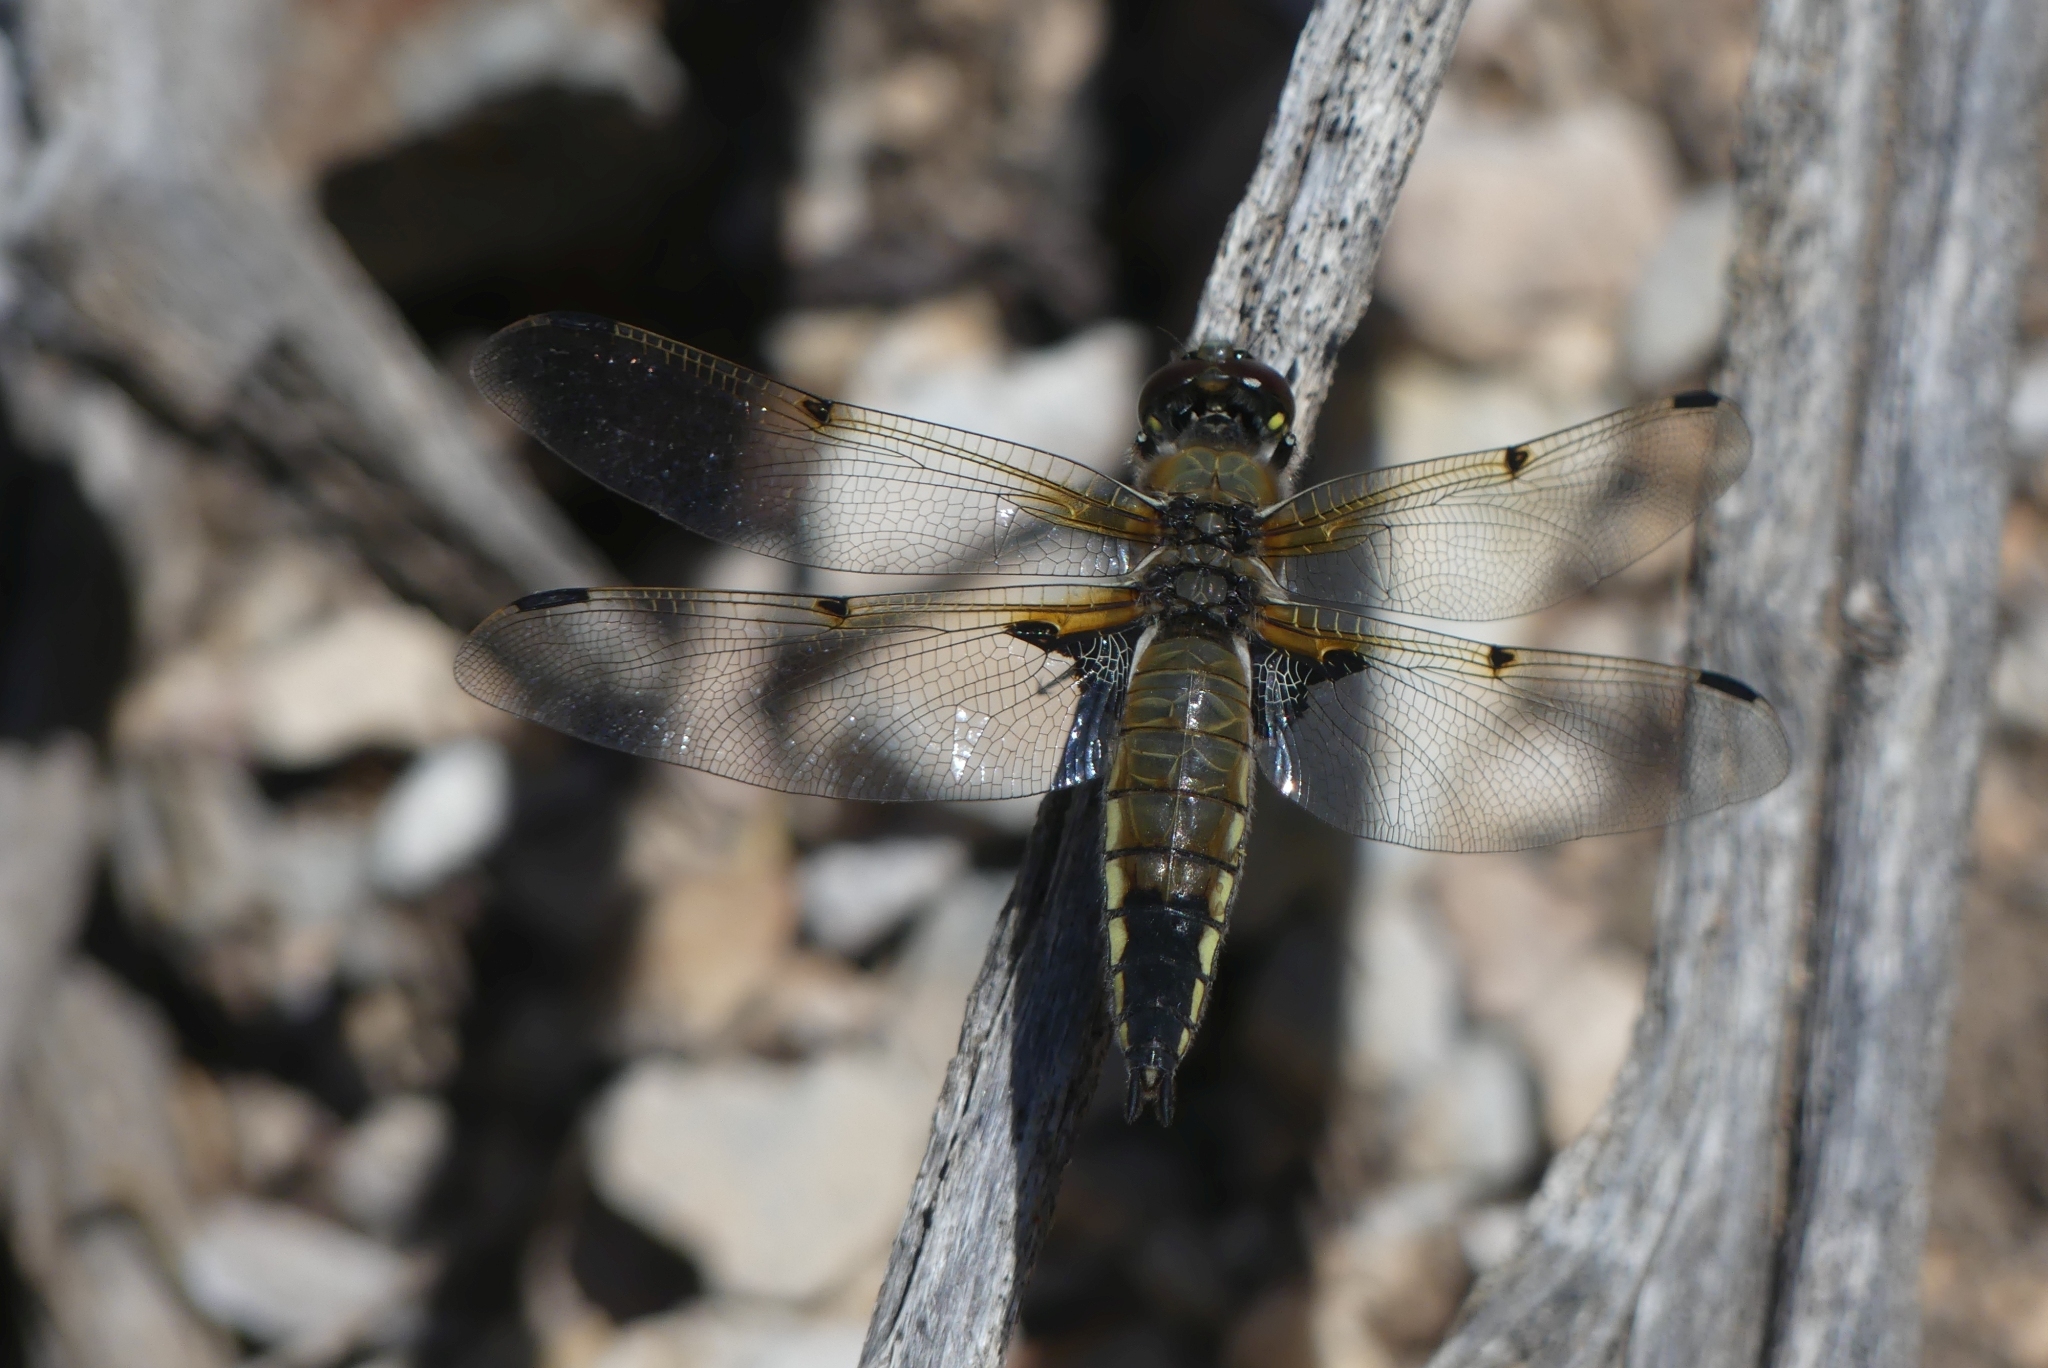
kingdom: Animalia
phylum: Arthropoda
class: Insecta
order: Odonata
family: Libellulidae
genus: Libellula
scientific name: Libellula quadrimaculata
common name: Four-spotted chaser
